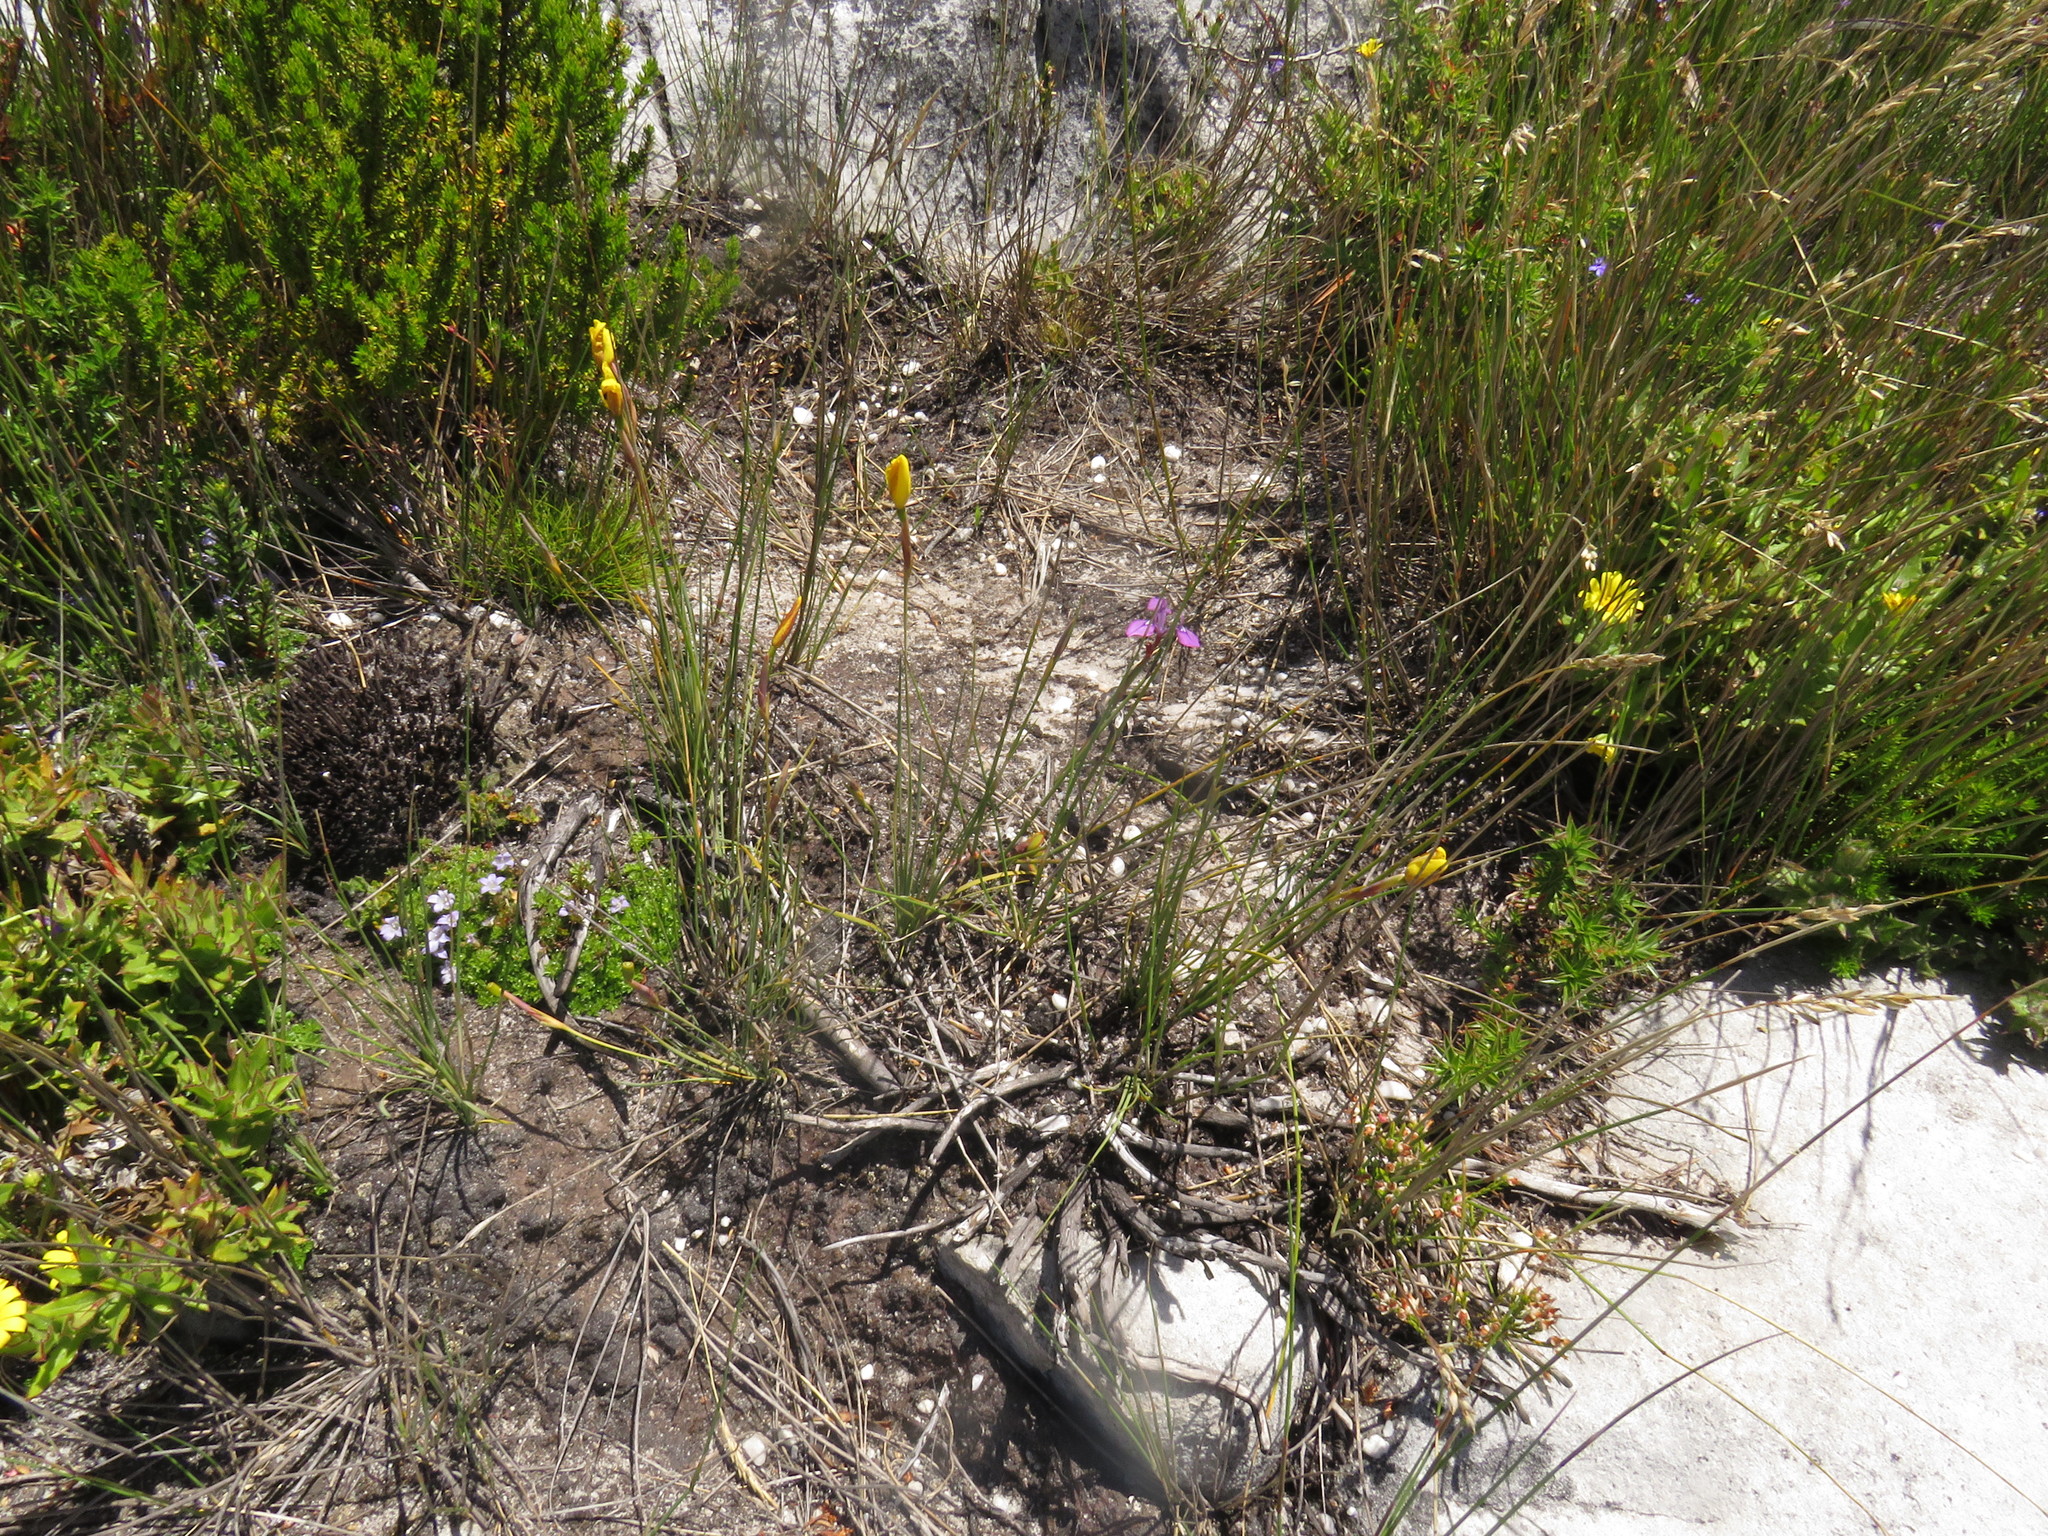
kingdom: Plantae
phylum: Tracheophyta
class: Liliopsida
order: Asparagales
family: Iridaceae
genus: Bobartia
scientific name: Bobartia filiformis
